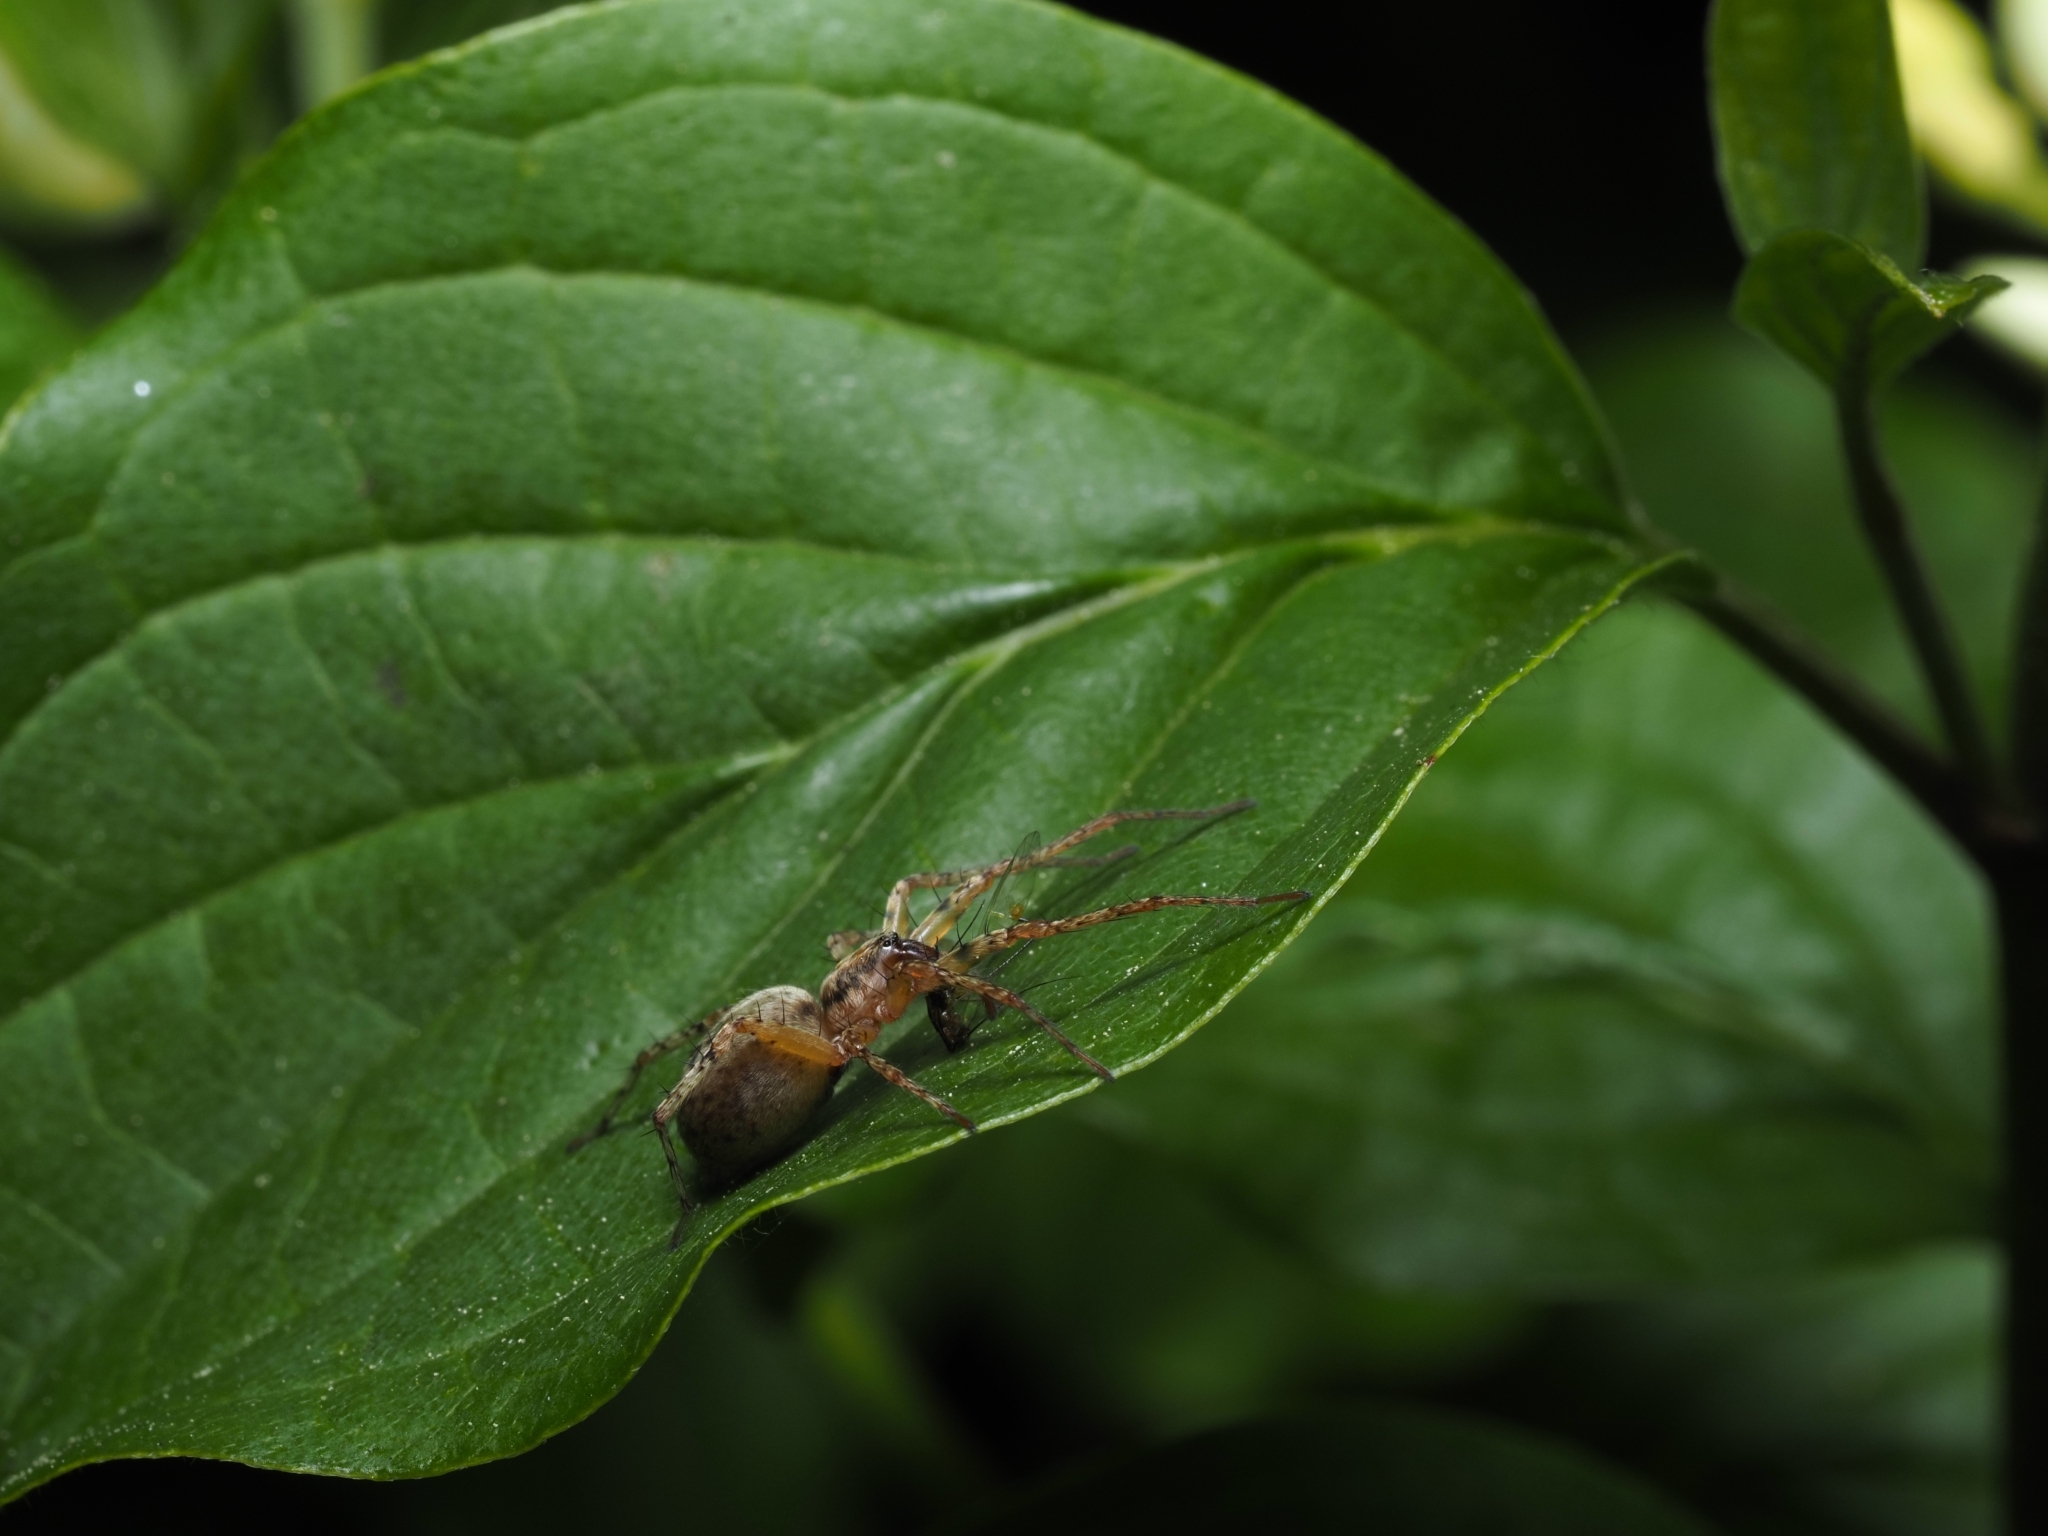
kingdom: Animalia
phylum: Arthropoda
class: Arachnida
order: Araneae
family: Anyphaenidae
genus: Anyphaena
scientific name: Anyphaena accentuata
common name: Buzzing spider
